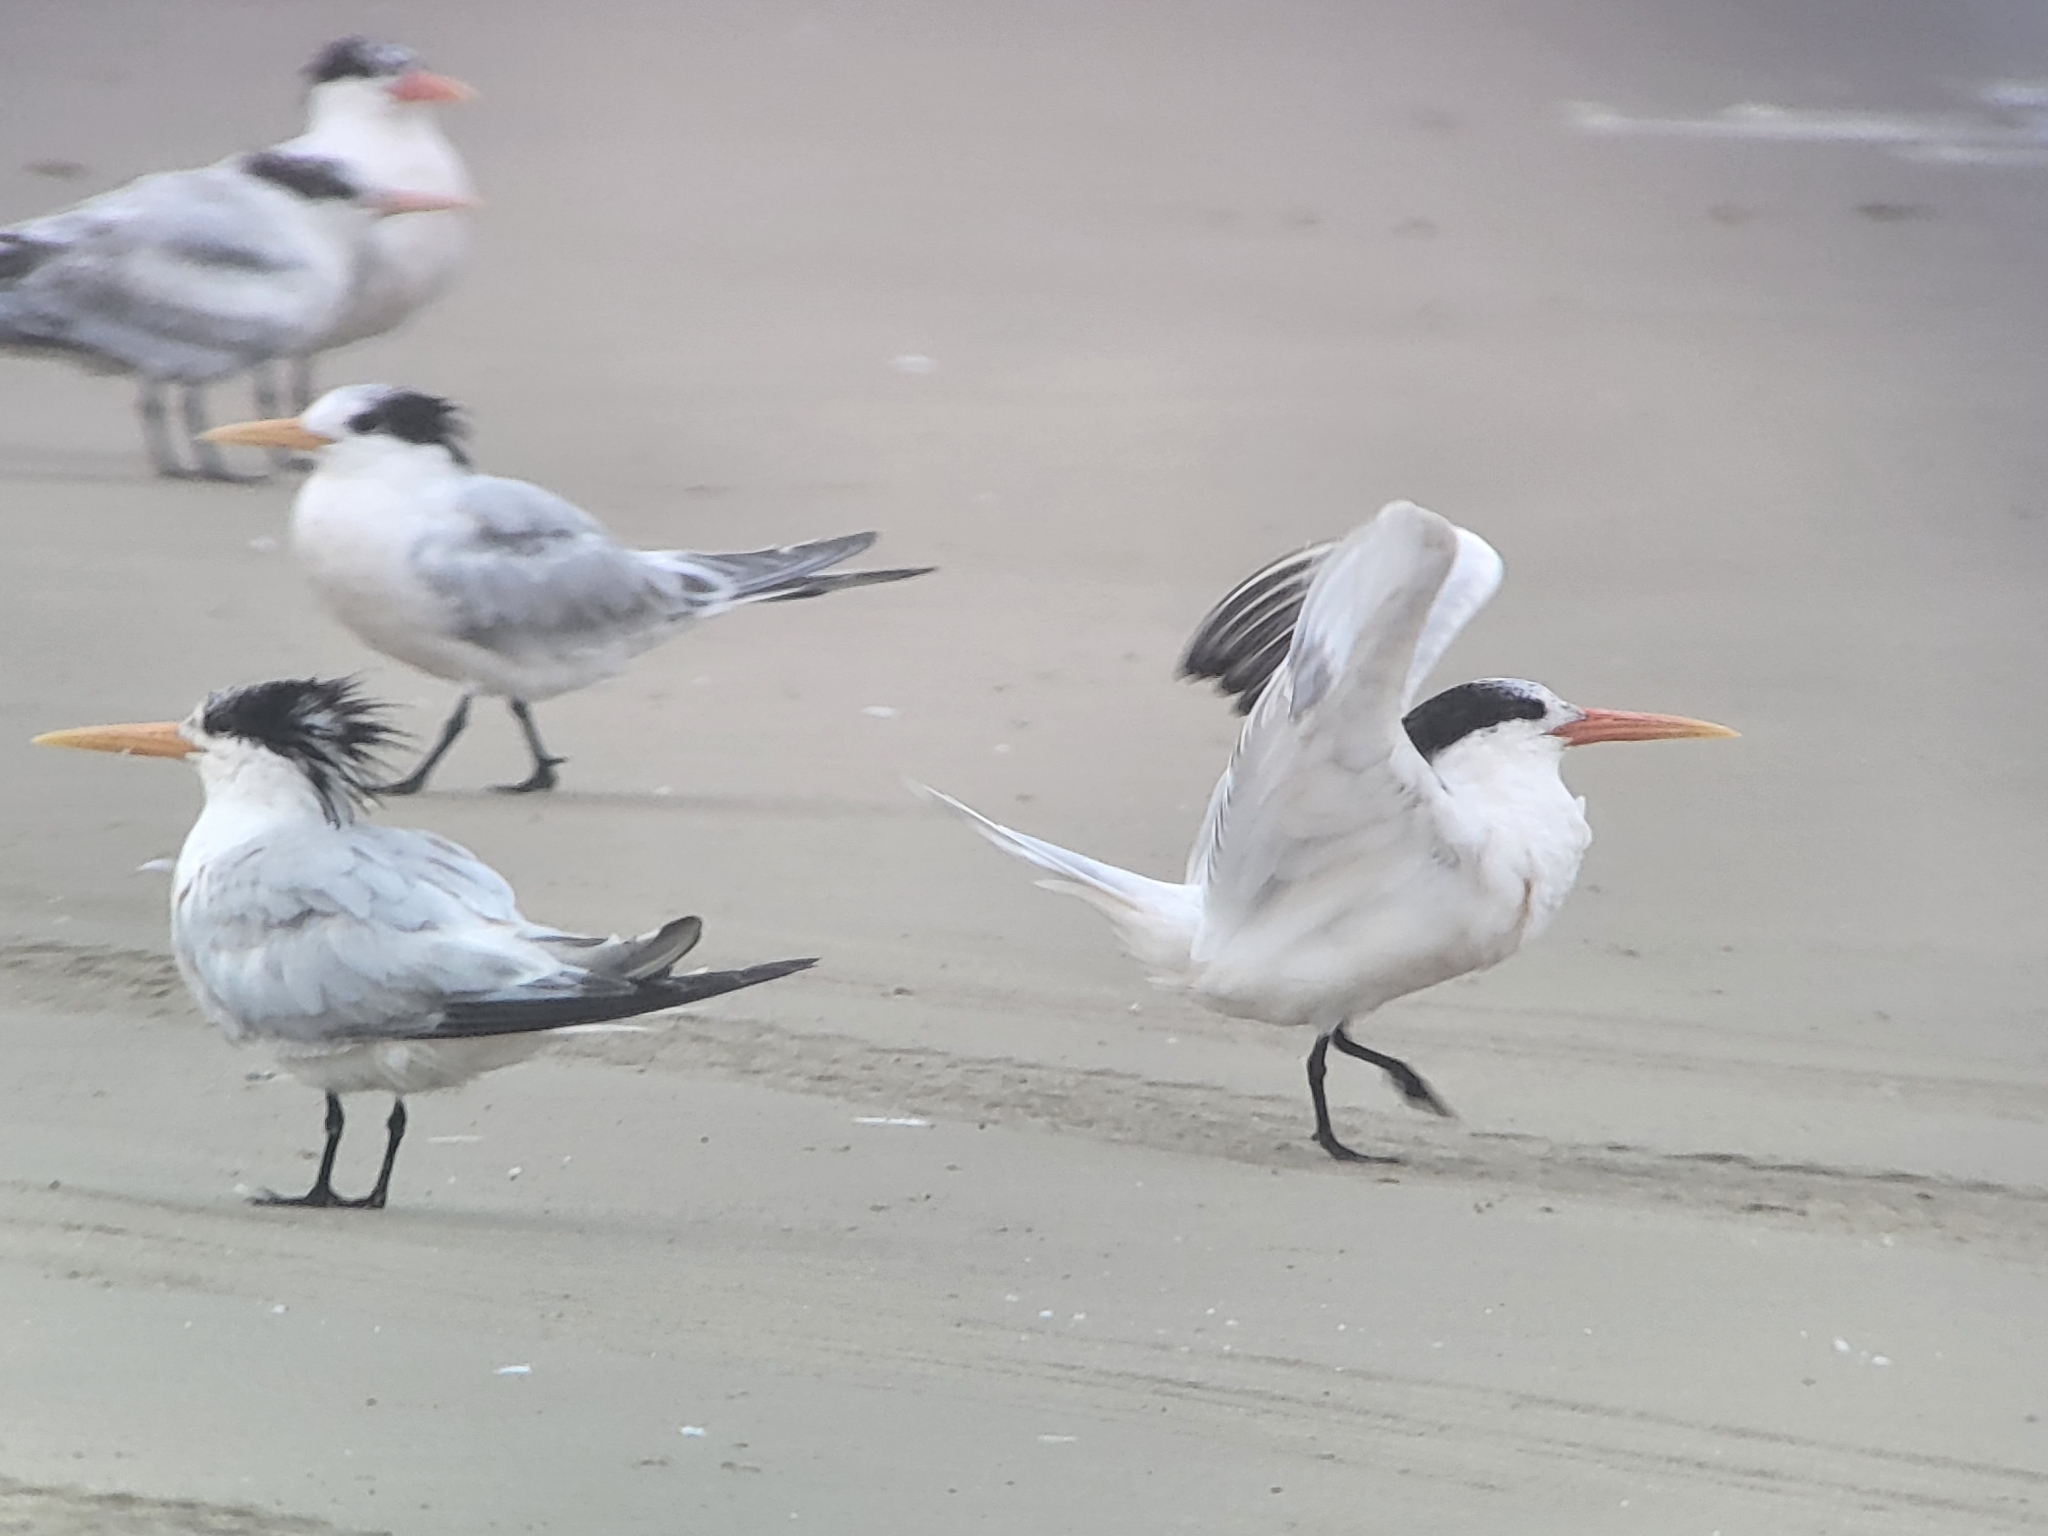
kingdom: Animalia
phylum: Chordata
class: Aves
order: Charadriiformes
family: Laridae
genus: Thalasseus
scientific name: Thalasseus elegans
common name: Elegant tern
